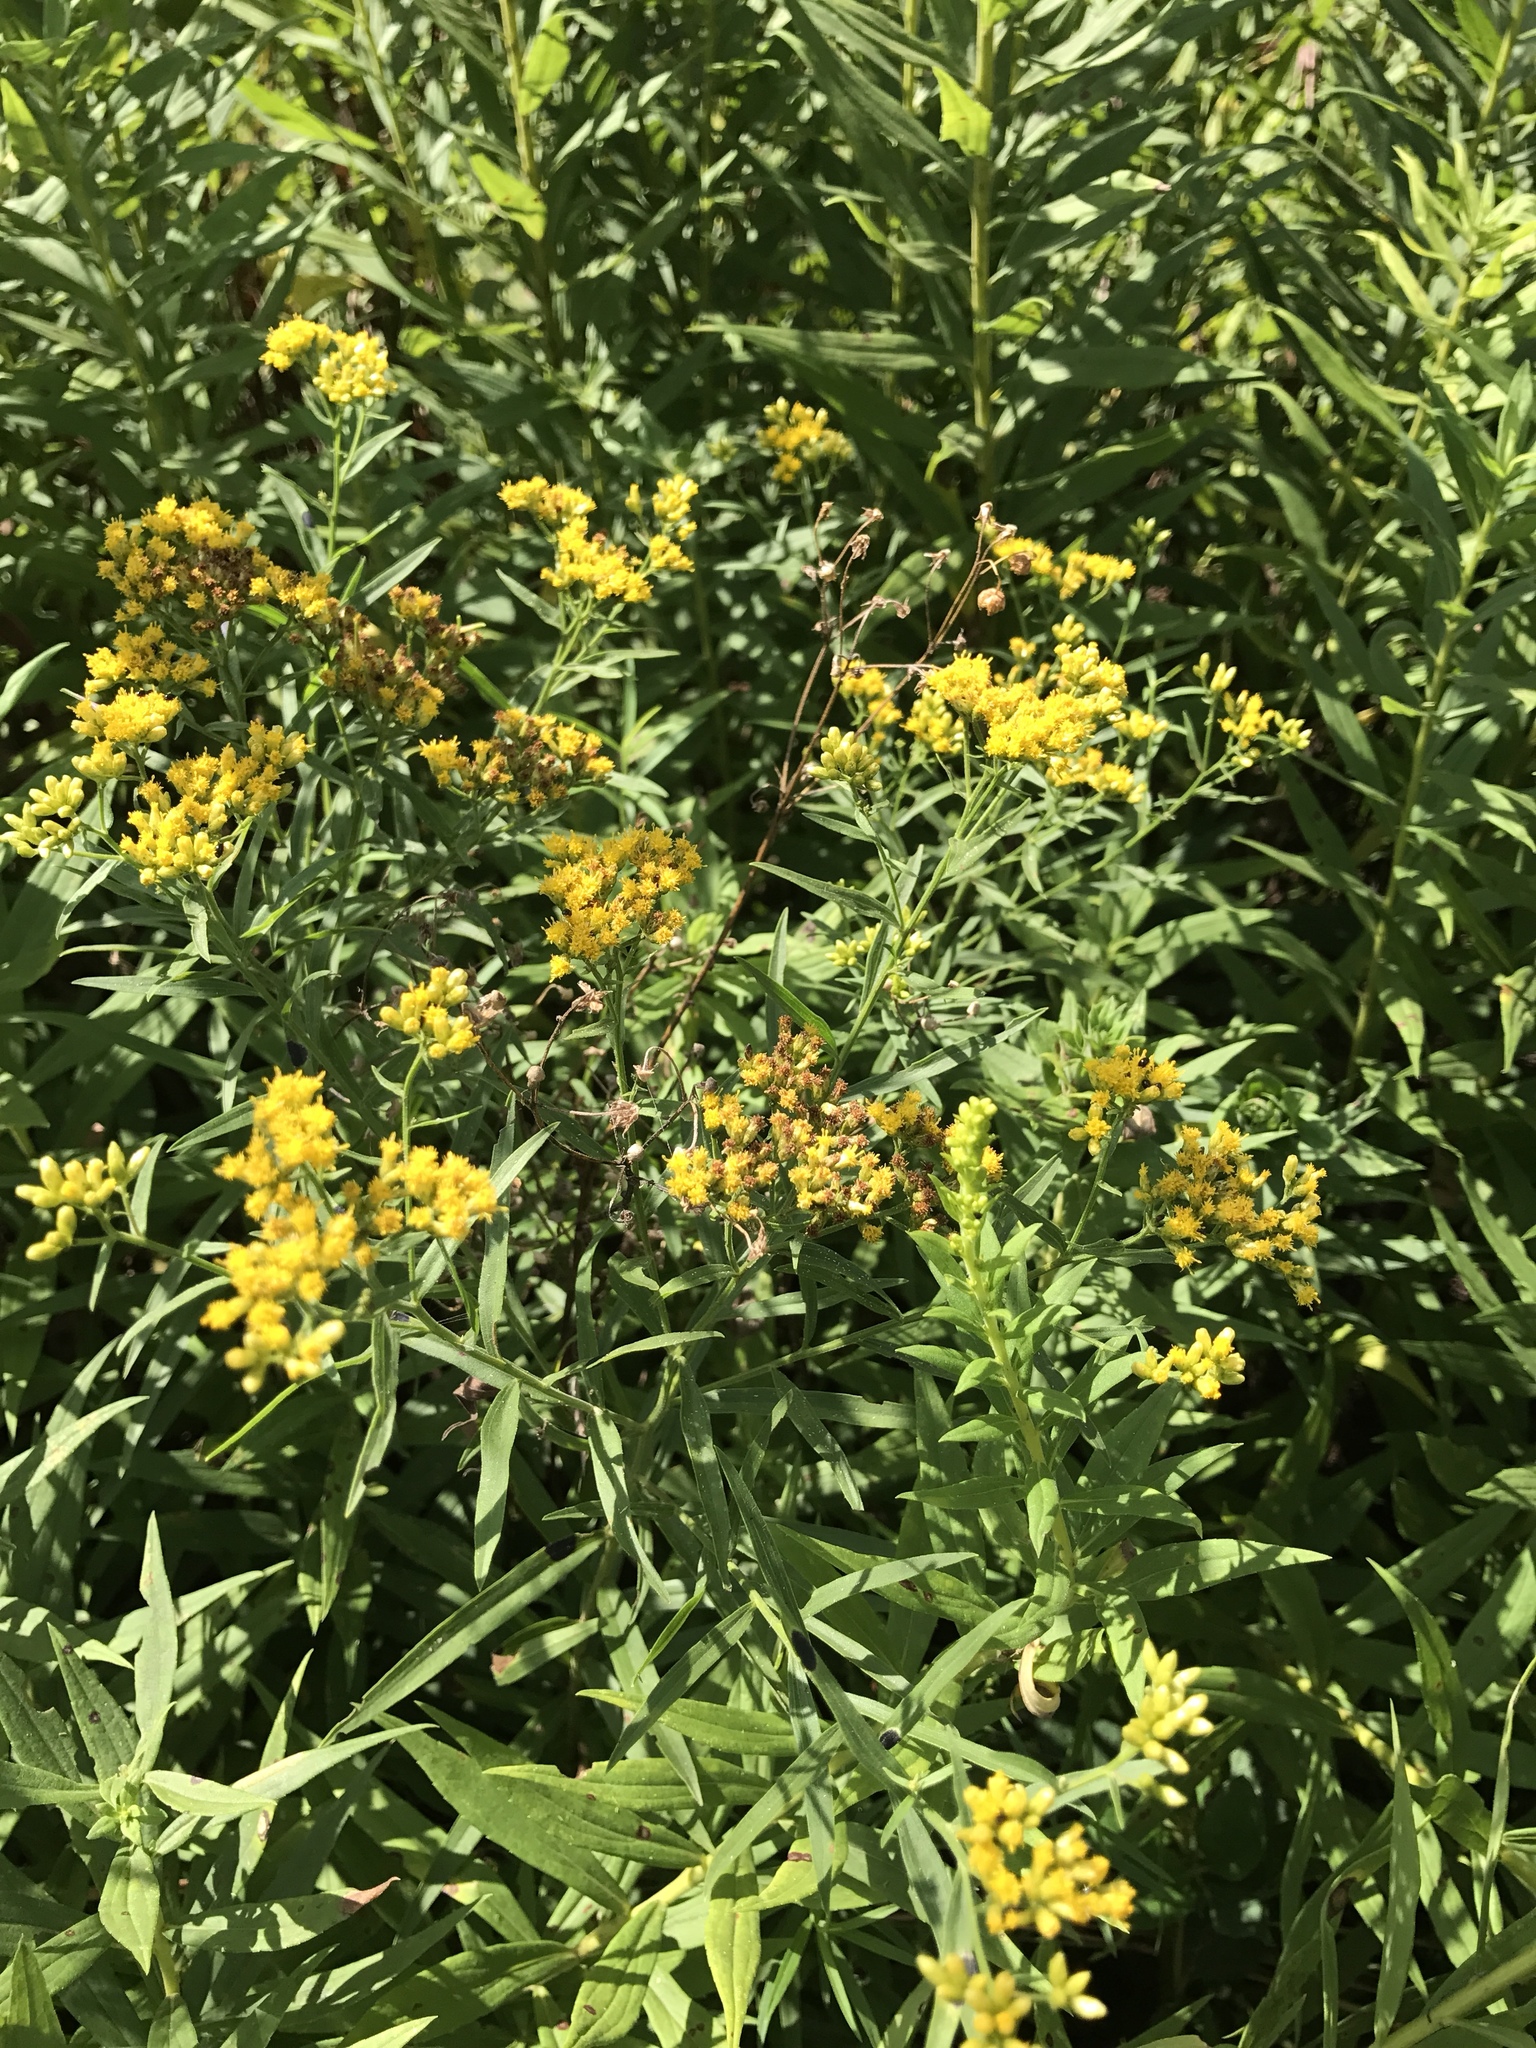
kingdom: Plantae
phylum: Tracheophyta
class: Magnoliopsida
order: Asterales
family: Asteraceae
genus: Euthamia
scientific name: Euthamia graminifolia
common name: Common goldentop
